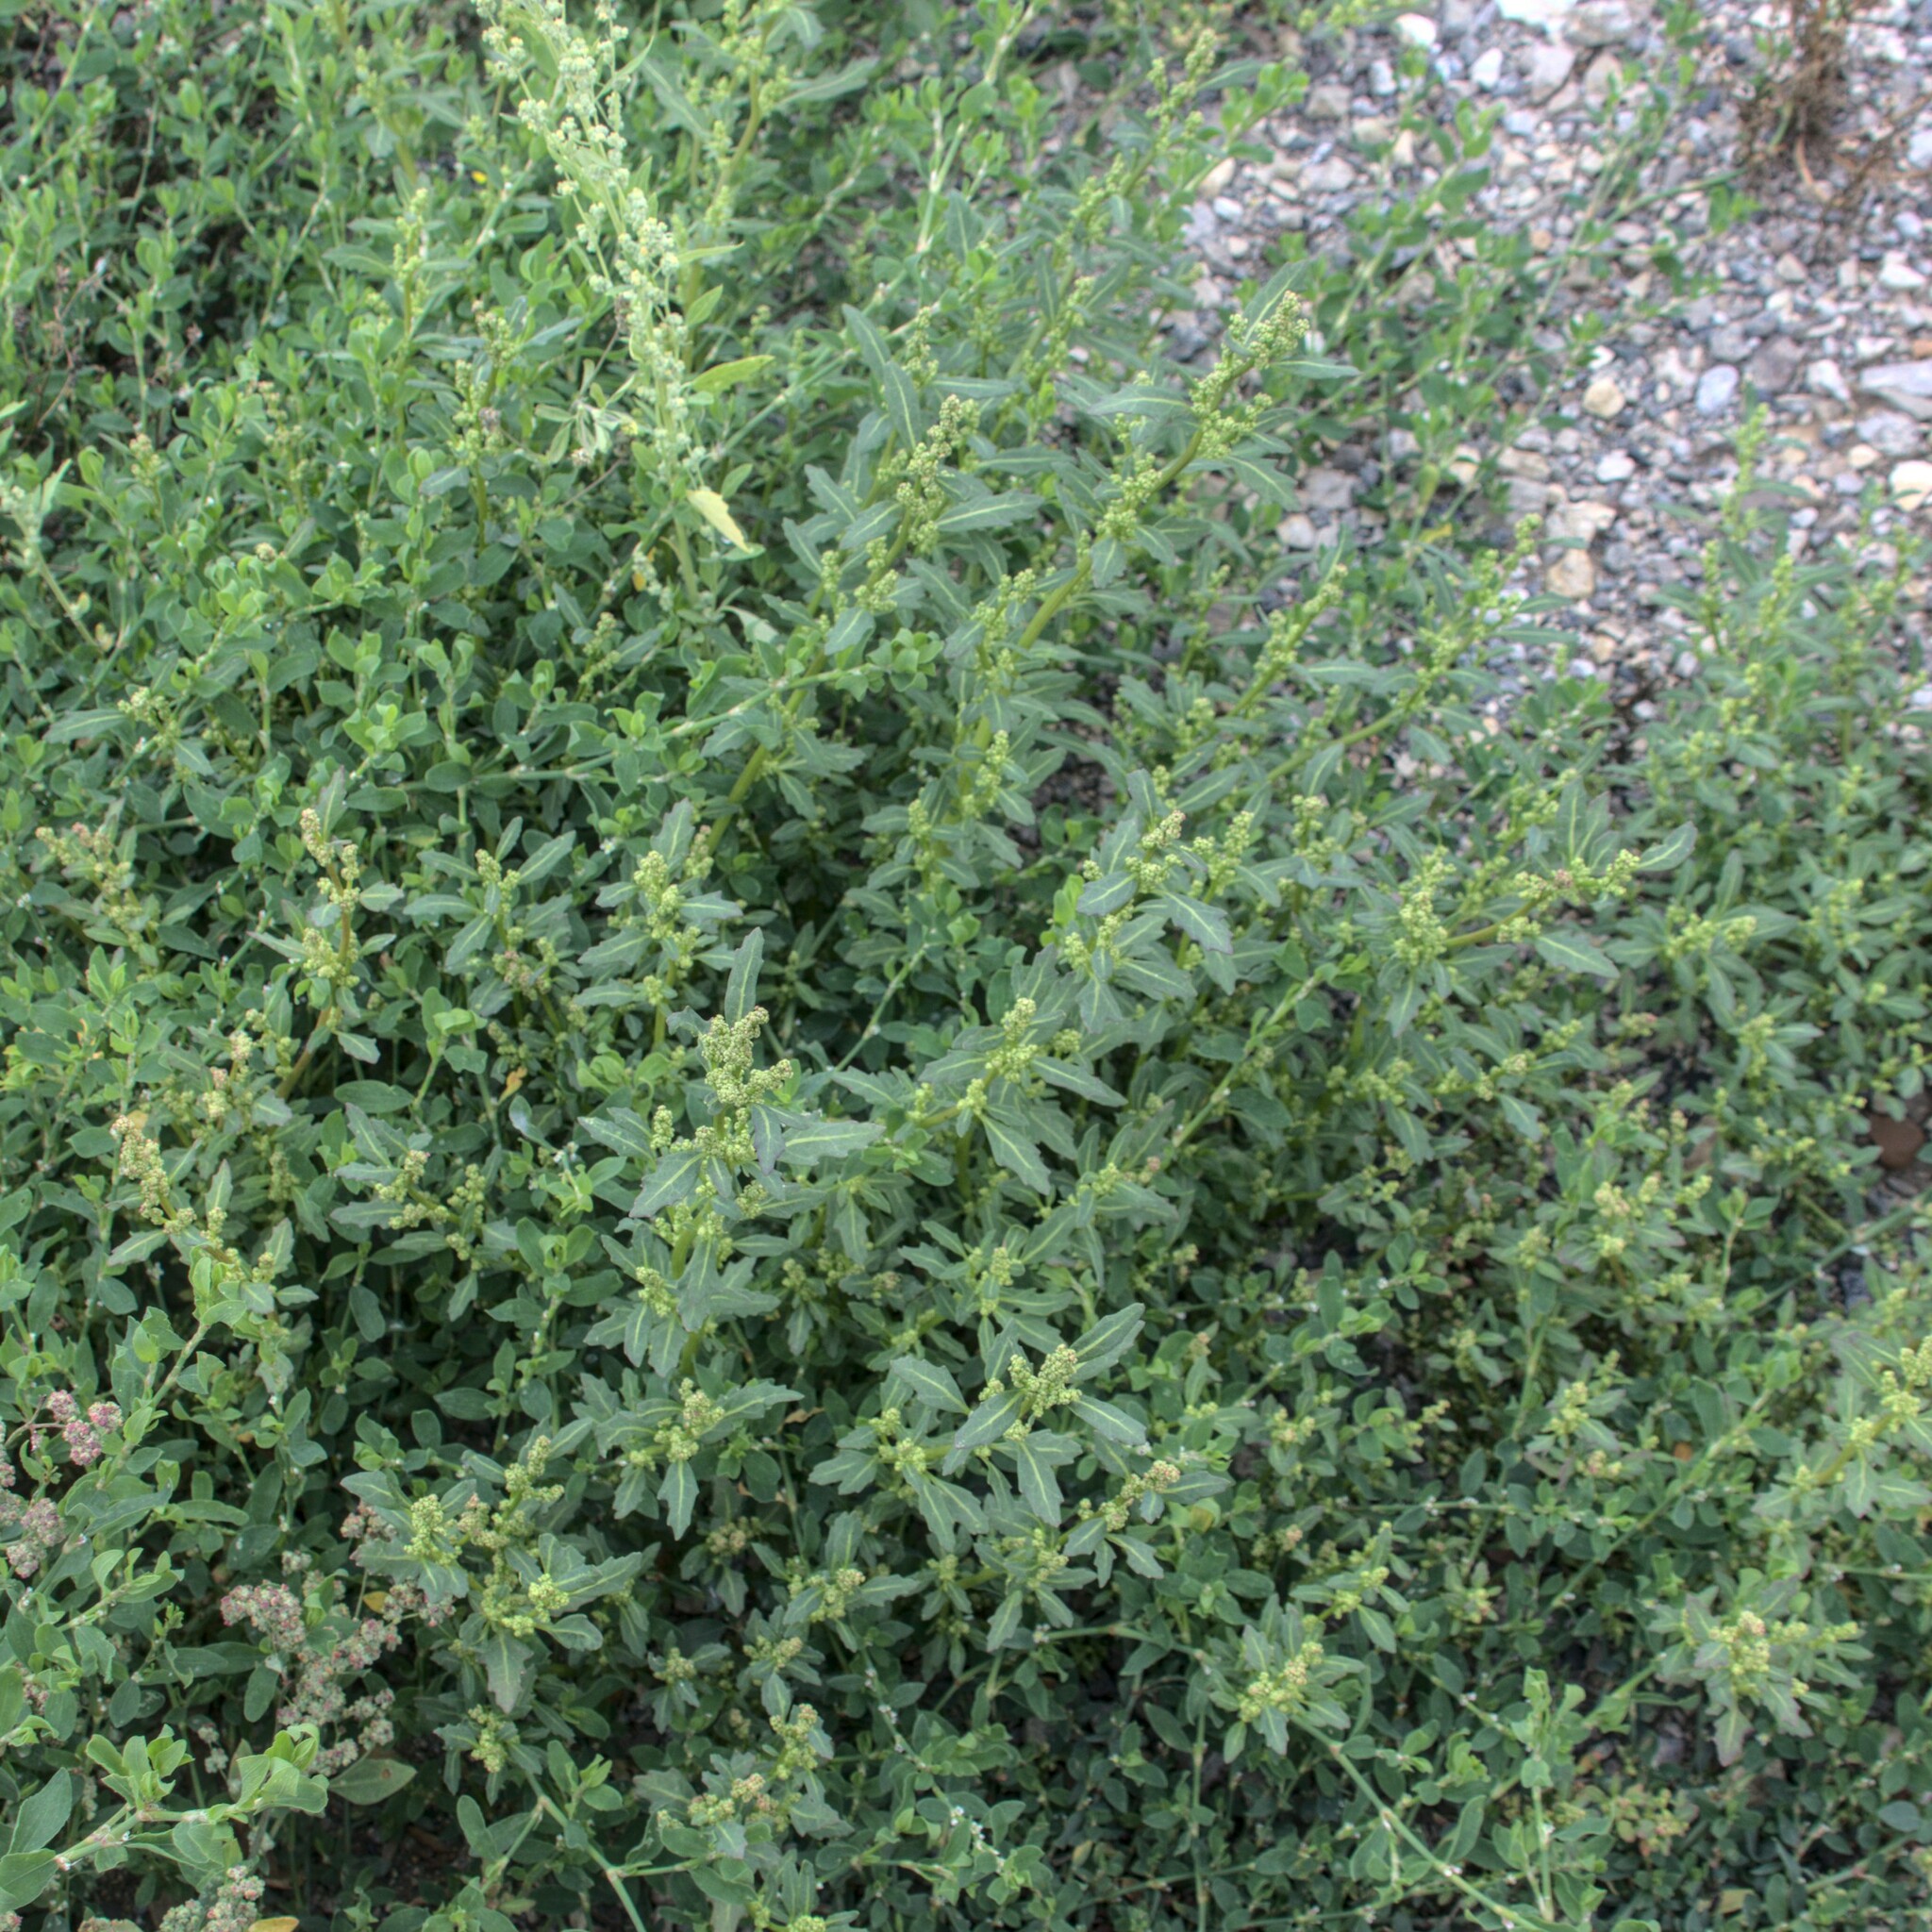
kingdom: Plantae
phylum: Tracheophyta
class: Magnoliopsida
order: Caryophyllales
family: Amaranthaceae
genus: Oxybasis
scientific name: Oxybasis glauca
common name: Glaucous goosefoot
